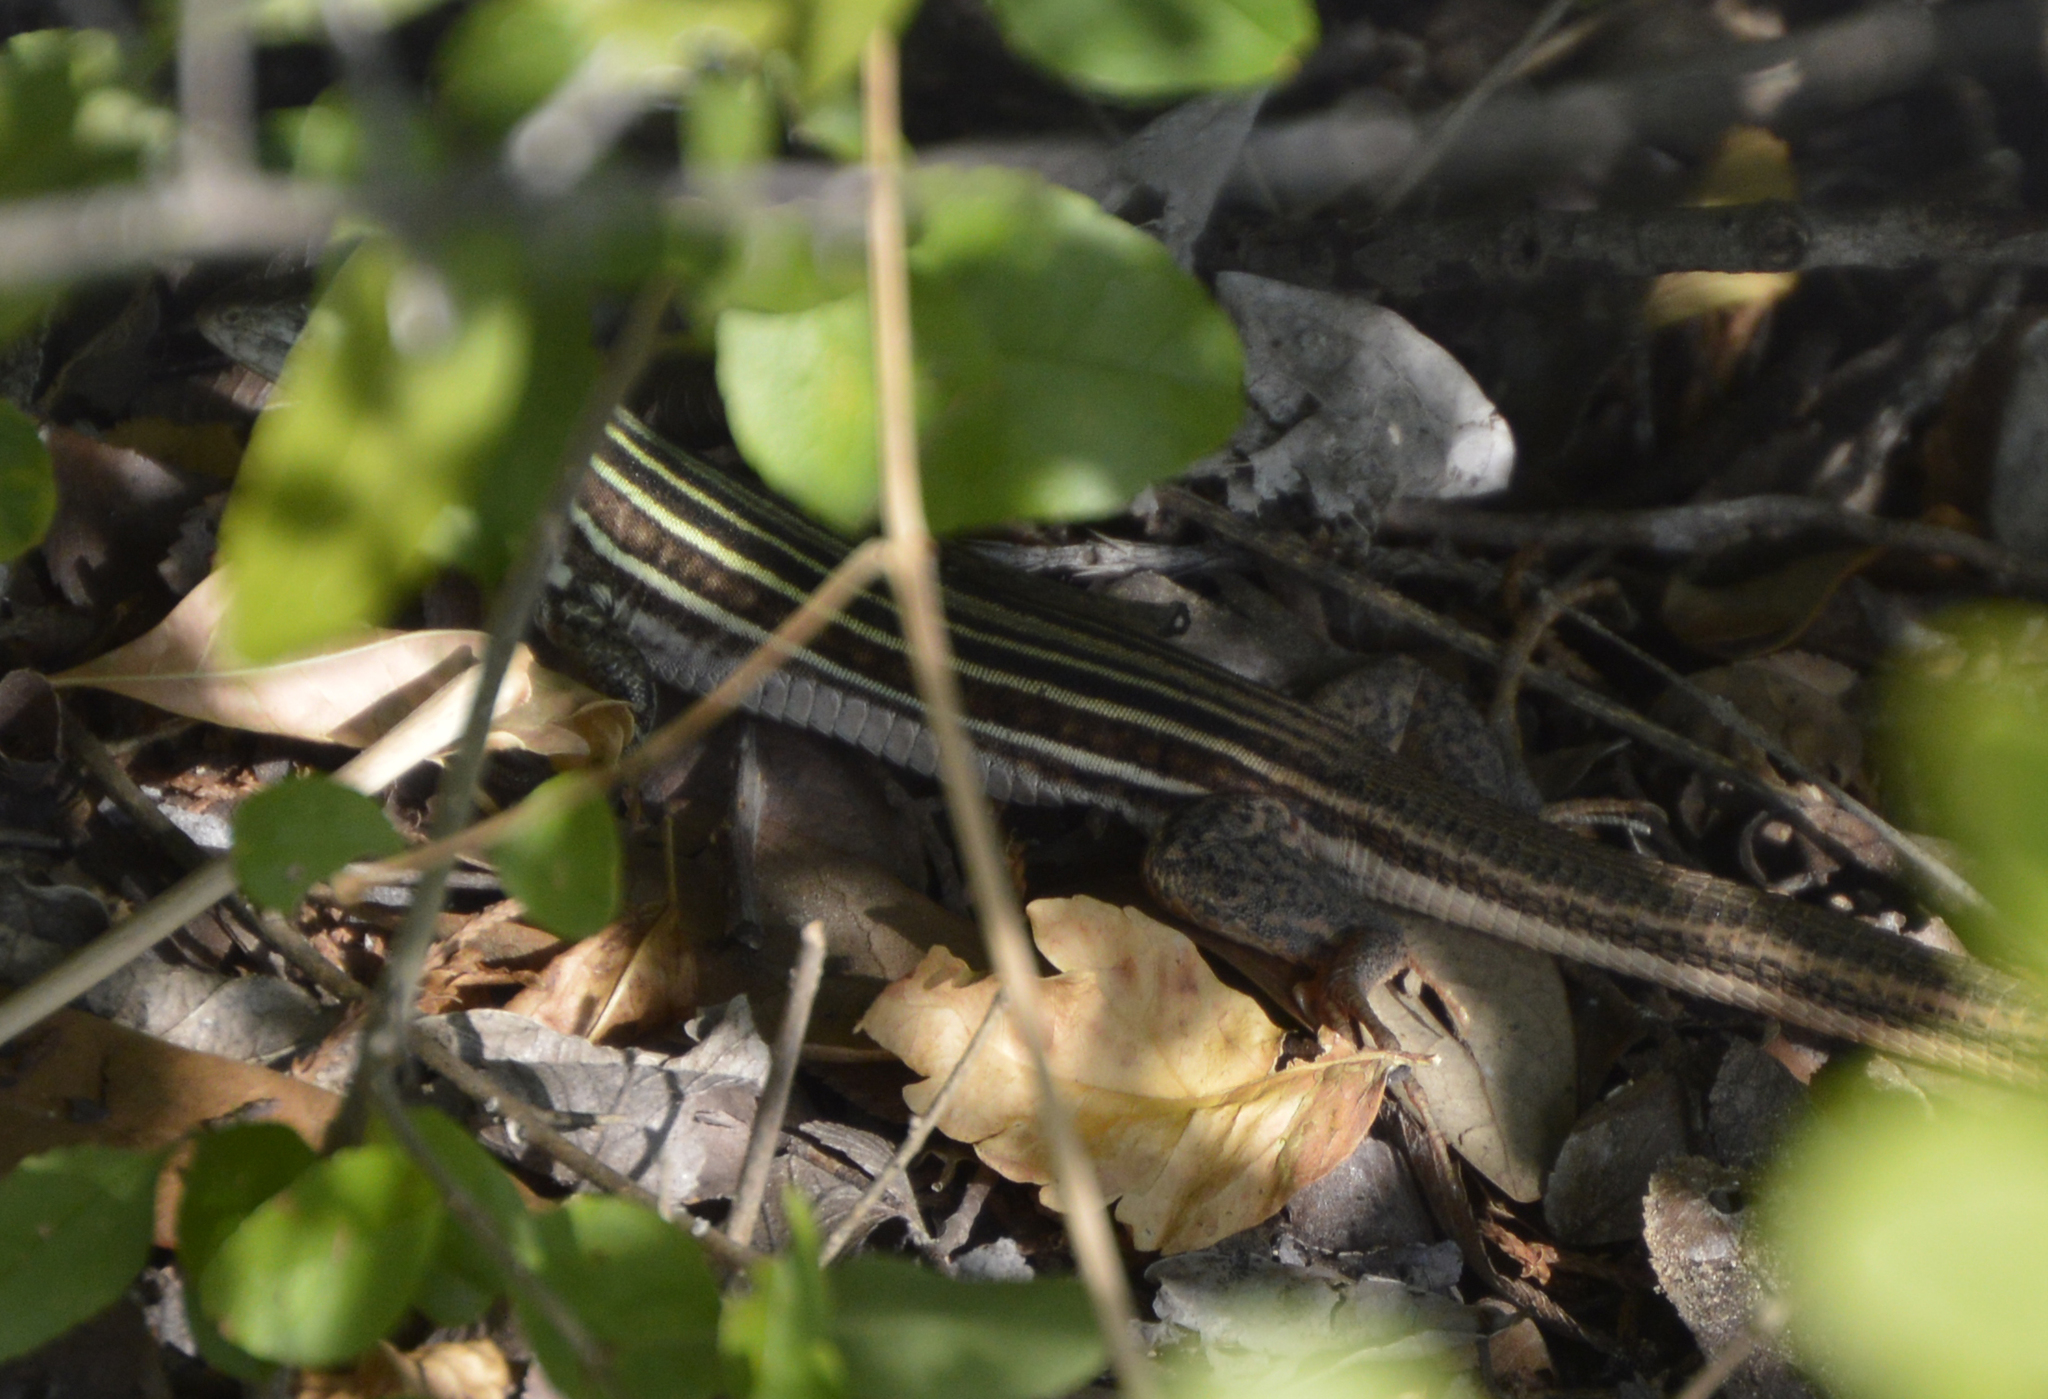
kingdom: Animalia
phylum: Chordata
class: Squamata
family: Teiidae
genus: Aspidoscelis
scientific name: Aspidoscelis gularis
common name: Eastern spotted whiptail
